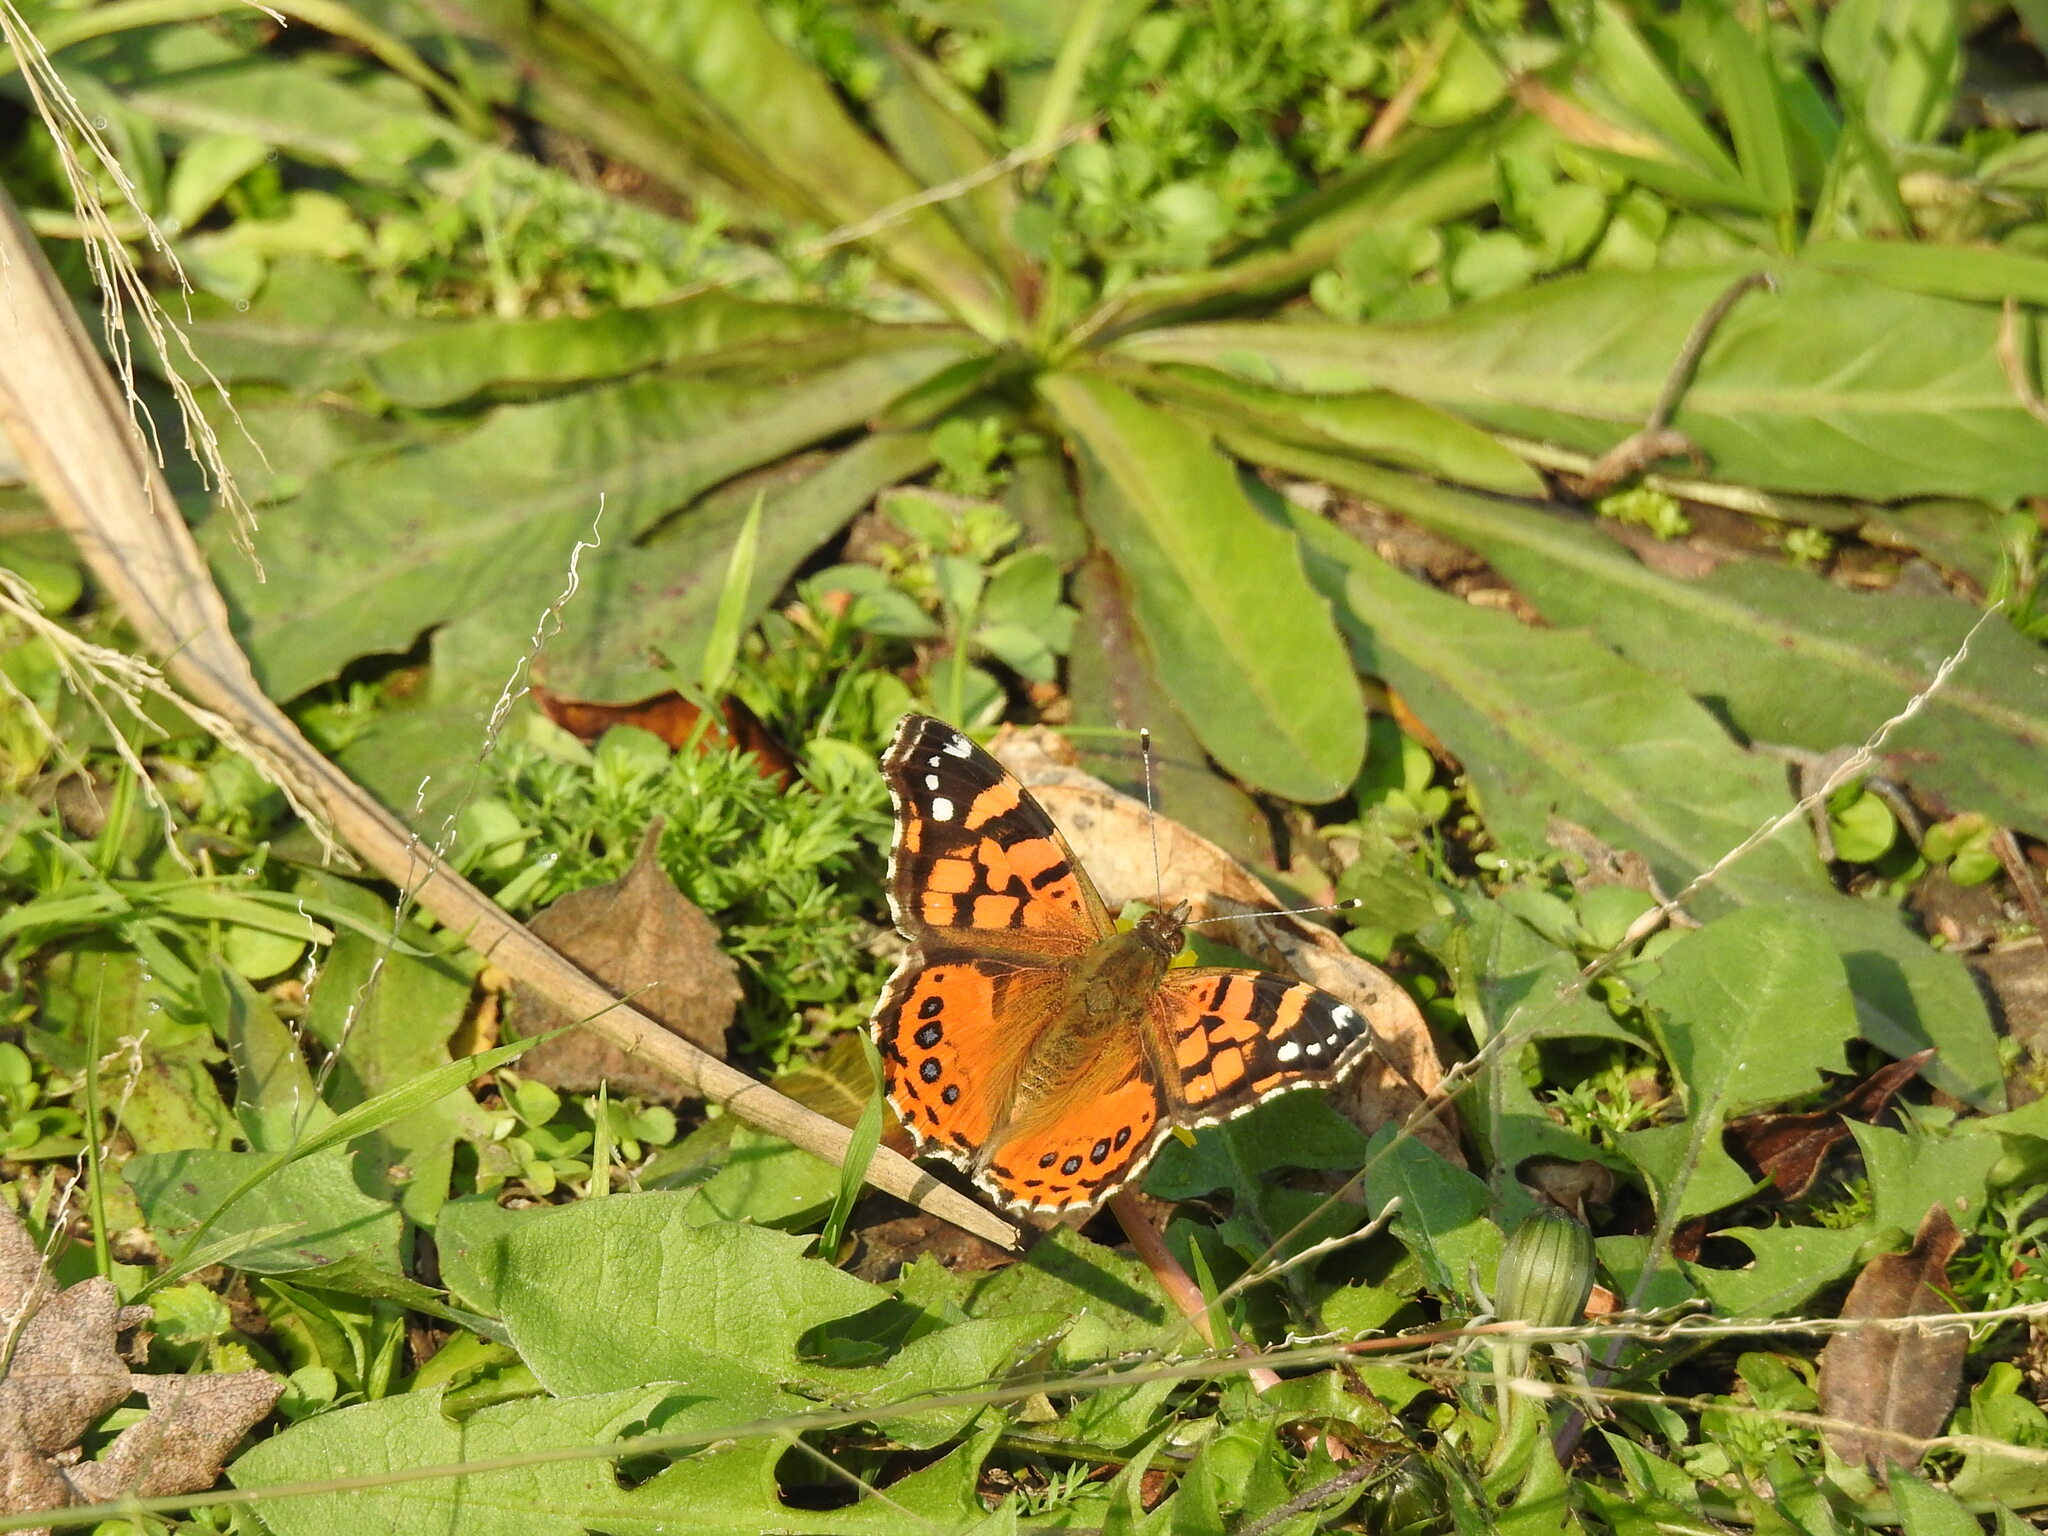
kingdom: Animalia
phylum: Arthropoda
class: Insecta
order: Lepidoptera
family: Nymphalidae
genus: Vanessa
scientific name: Vanessa carye
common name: Subtropical lady
